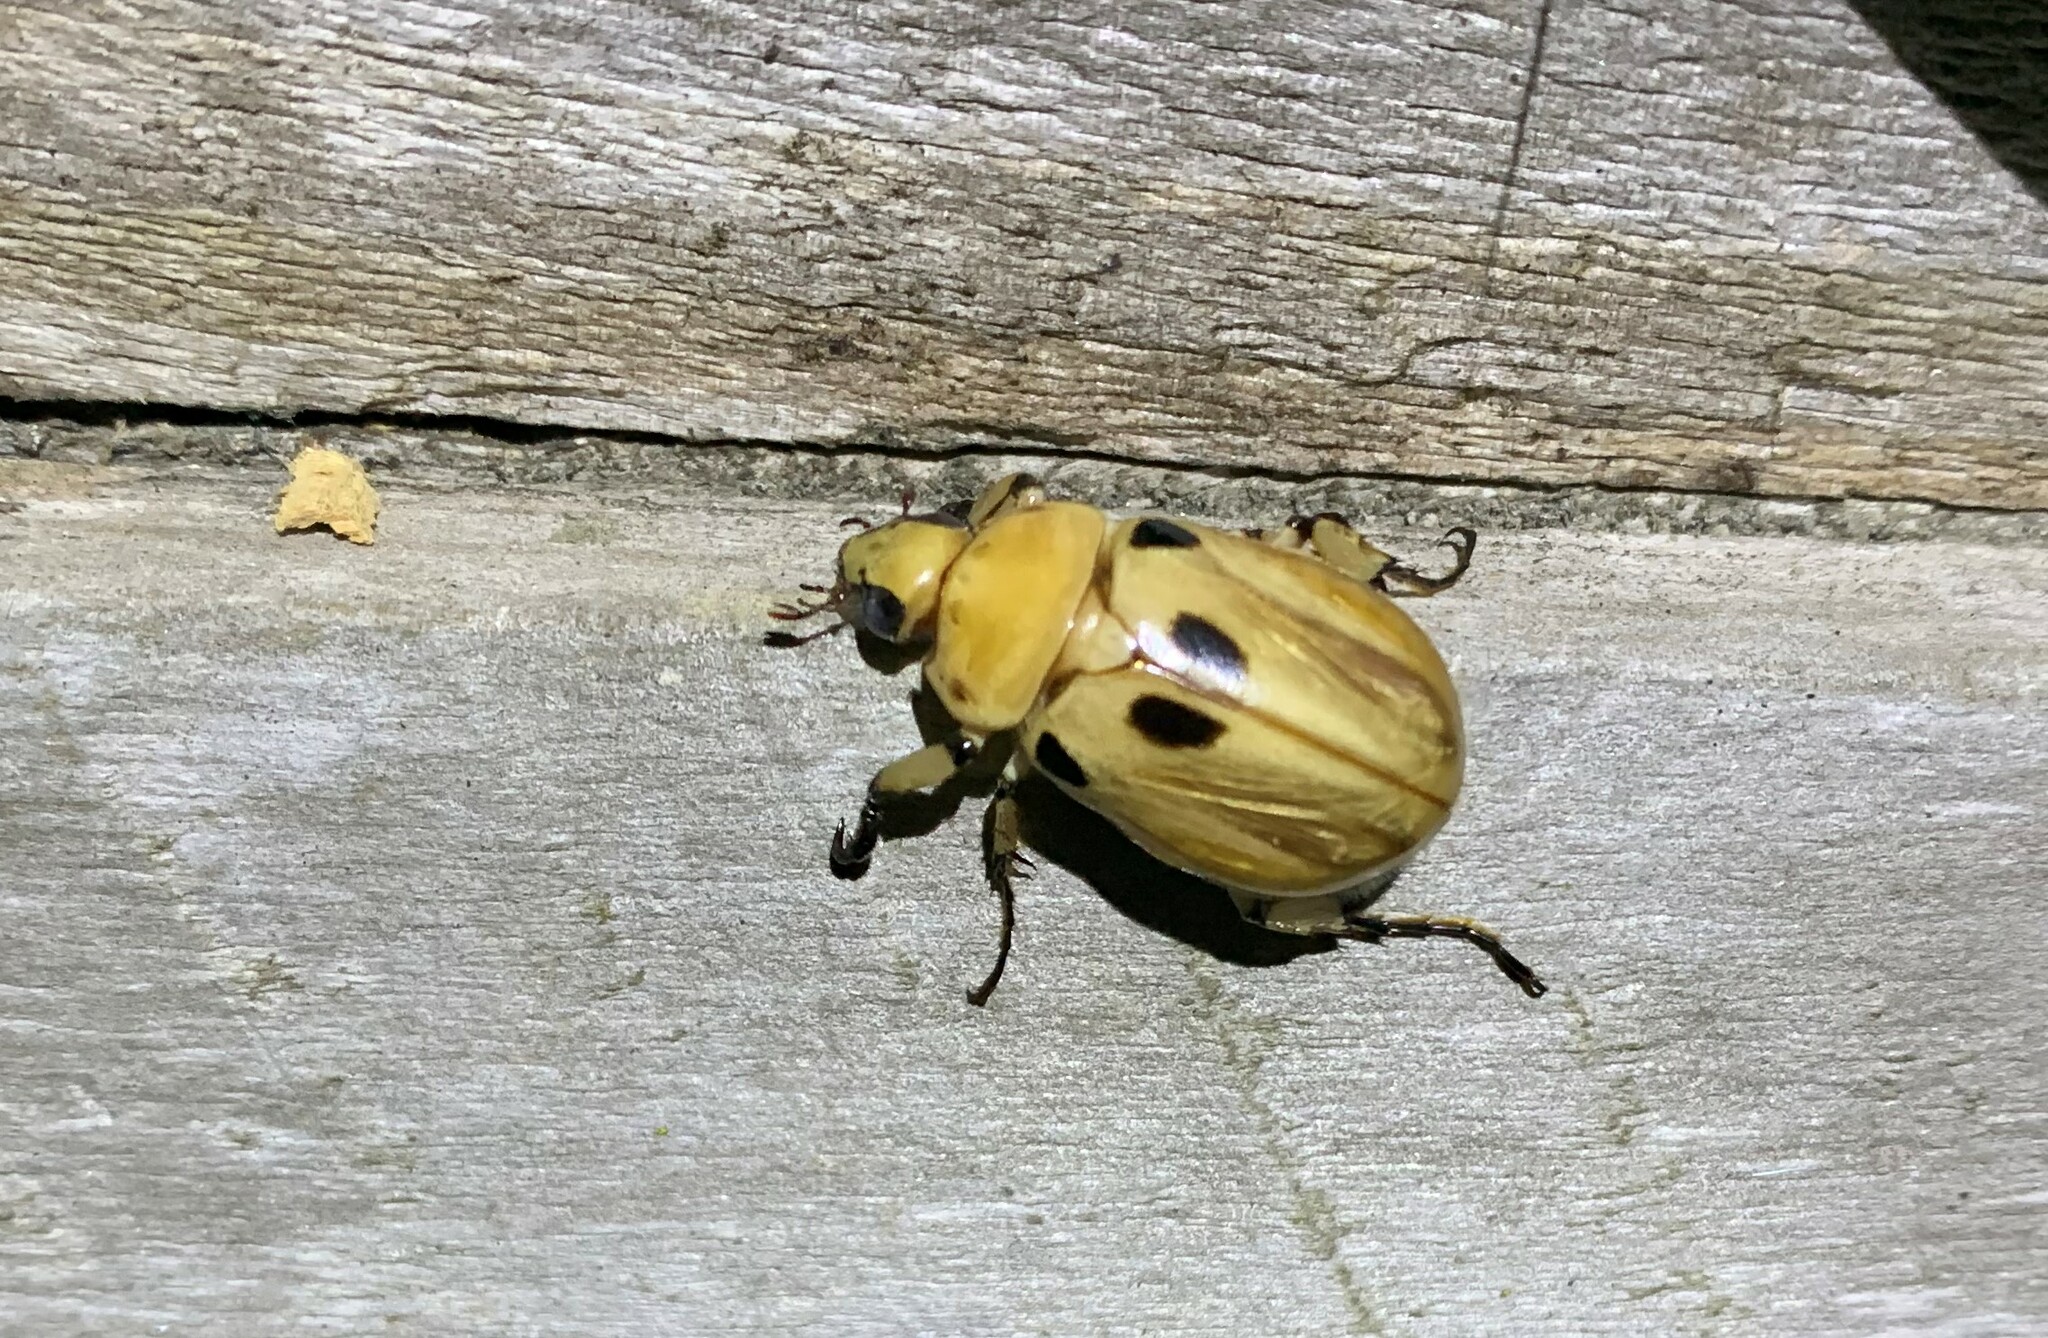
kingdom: Animalia
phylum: Arthropoda
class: Insecta
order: Coleoptera
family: Scarabaeidae
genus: Ancognatha
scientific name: Ancognatha vulgaris
